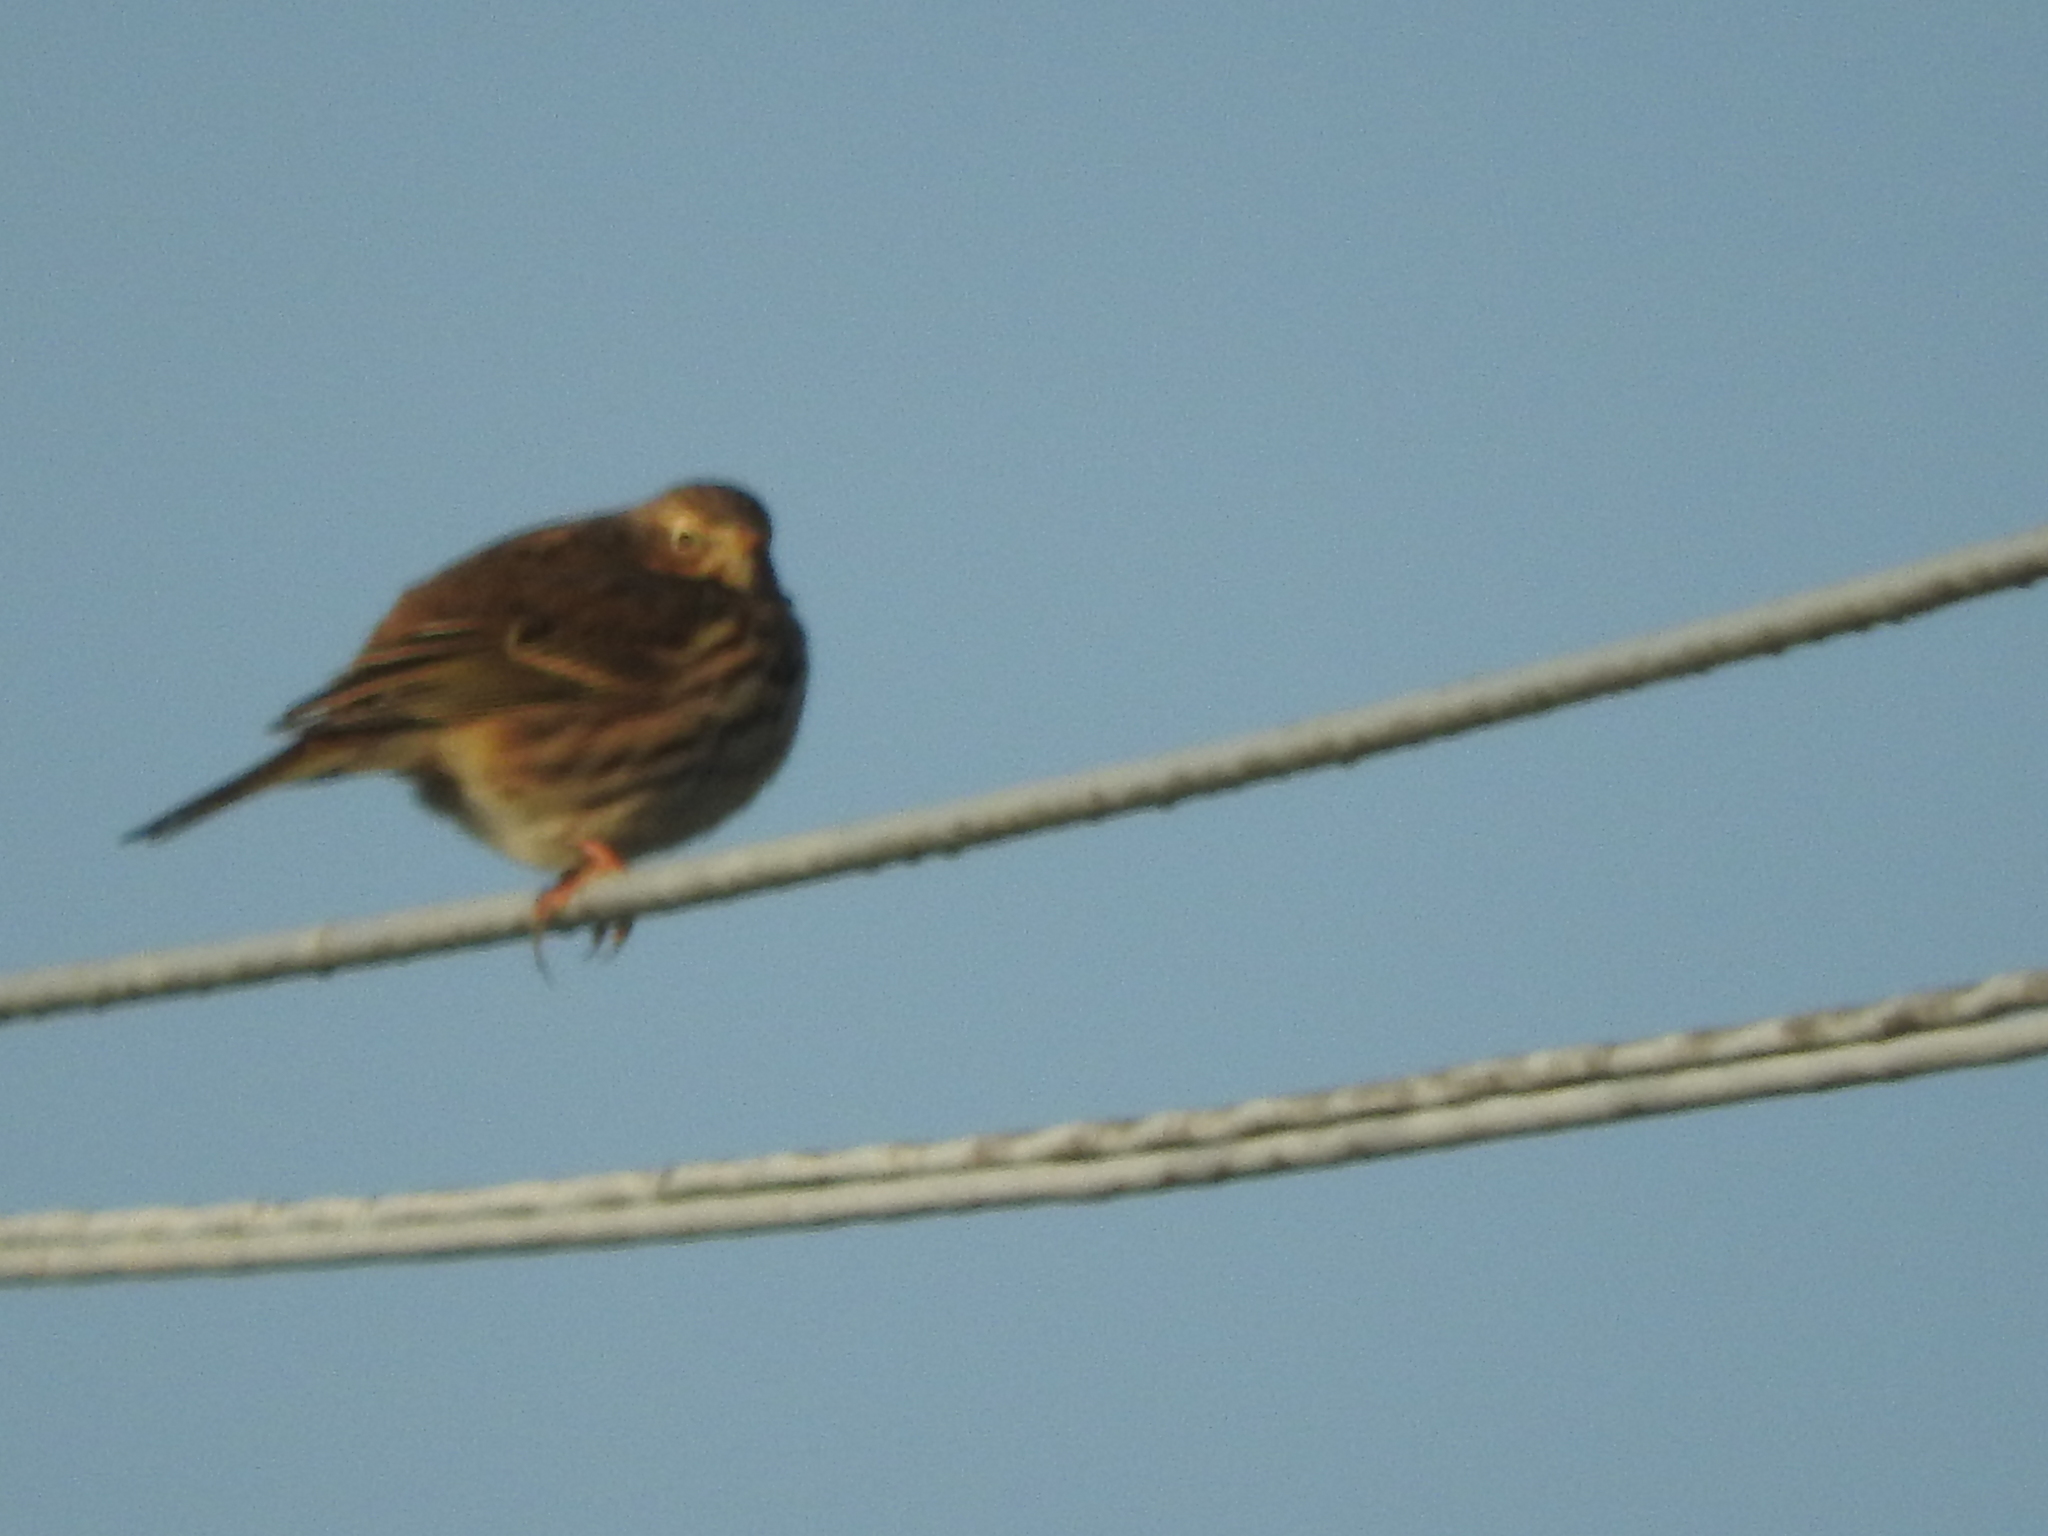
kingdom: Animalia
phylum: Chordata
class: Aves
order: Passeriformes
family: Motacillidae
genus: Anthus
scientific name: Anthus pratensis
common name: Meadow pipit
